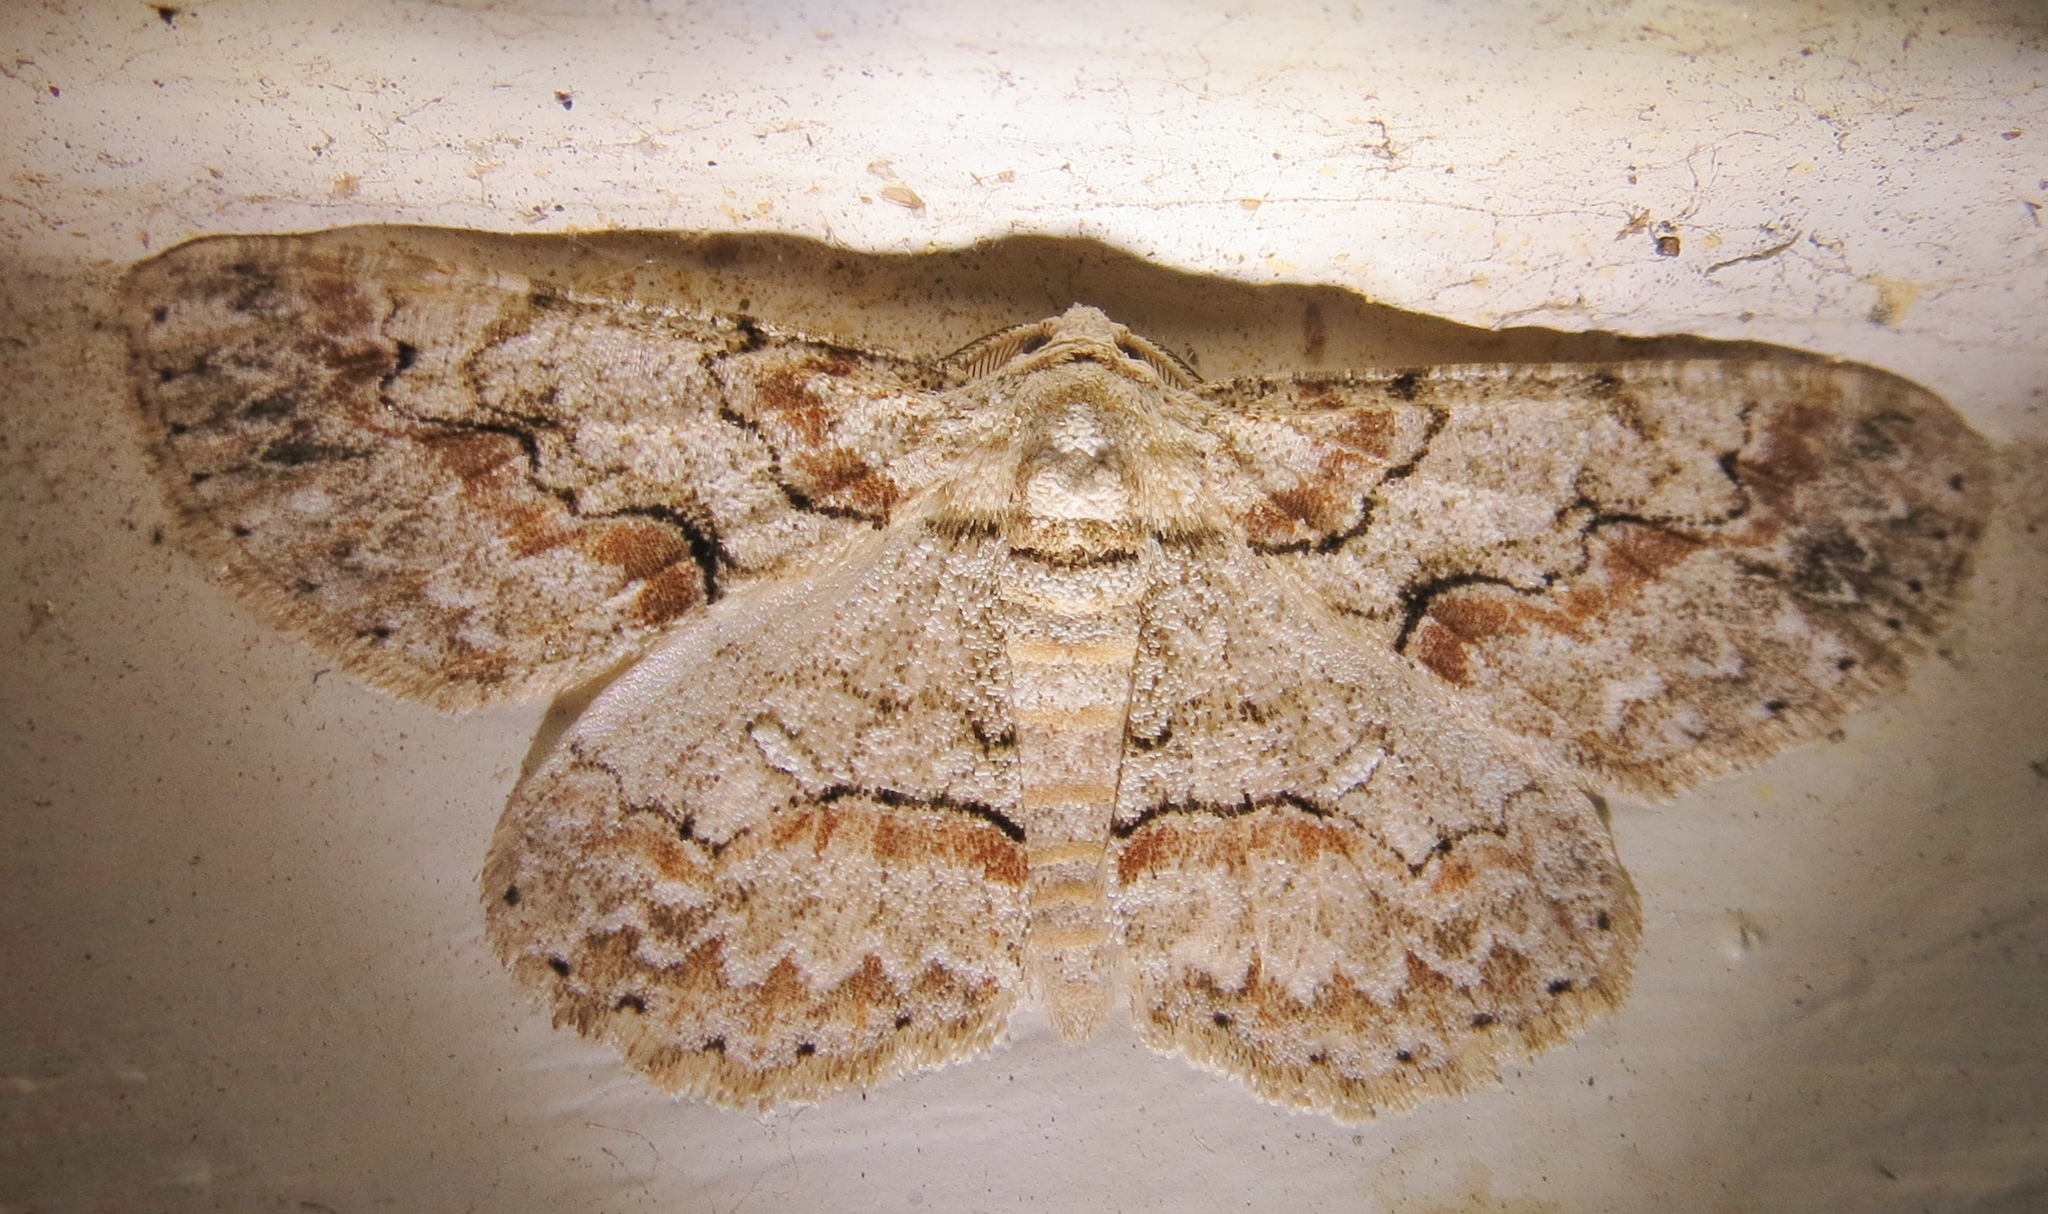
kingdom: Animalia
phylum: Arthropoda
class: Insecta
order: Lepidoptera
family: Geometridae
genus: Iridopsis
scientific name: Iridopsis defectaria
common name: Brown-shaded gray
